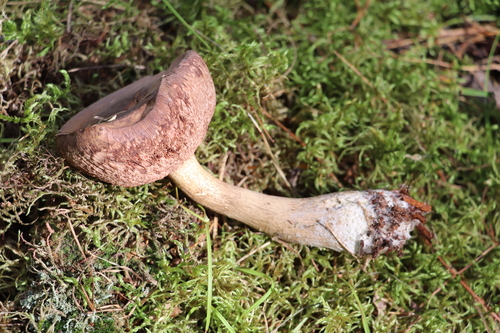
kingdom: Fungi
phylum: Basidiomycota
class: Agaricomycetes
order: Boletales
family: Boletaceae
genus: Tylopilus
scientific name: Tylopilus felleus
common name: Bitter bolete
